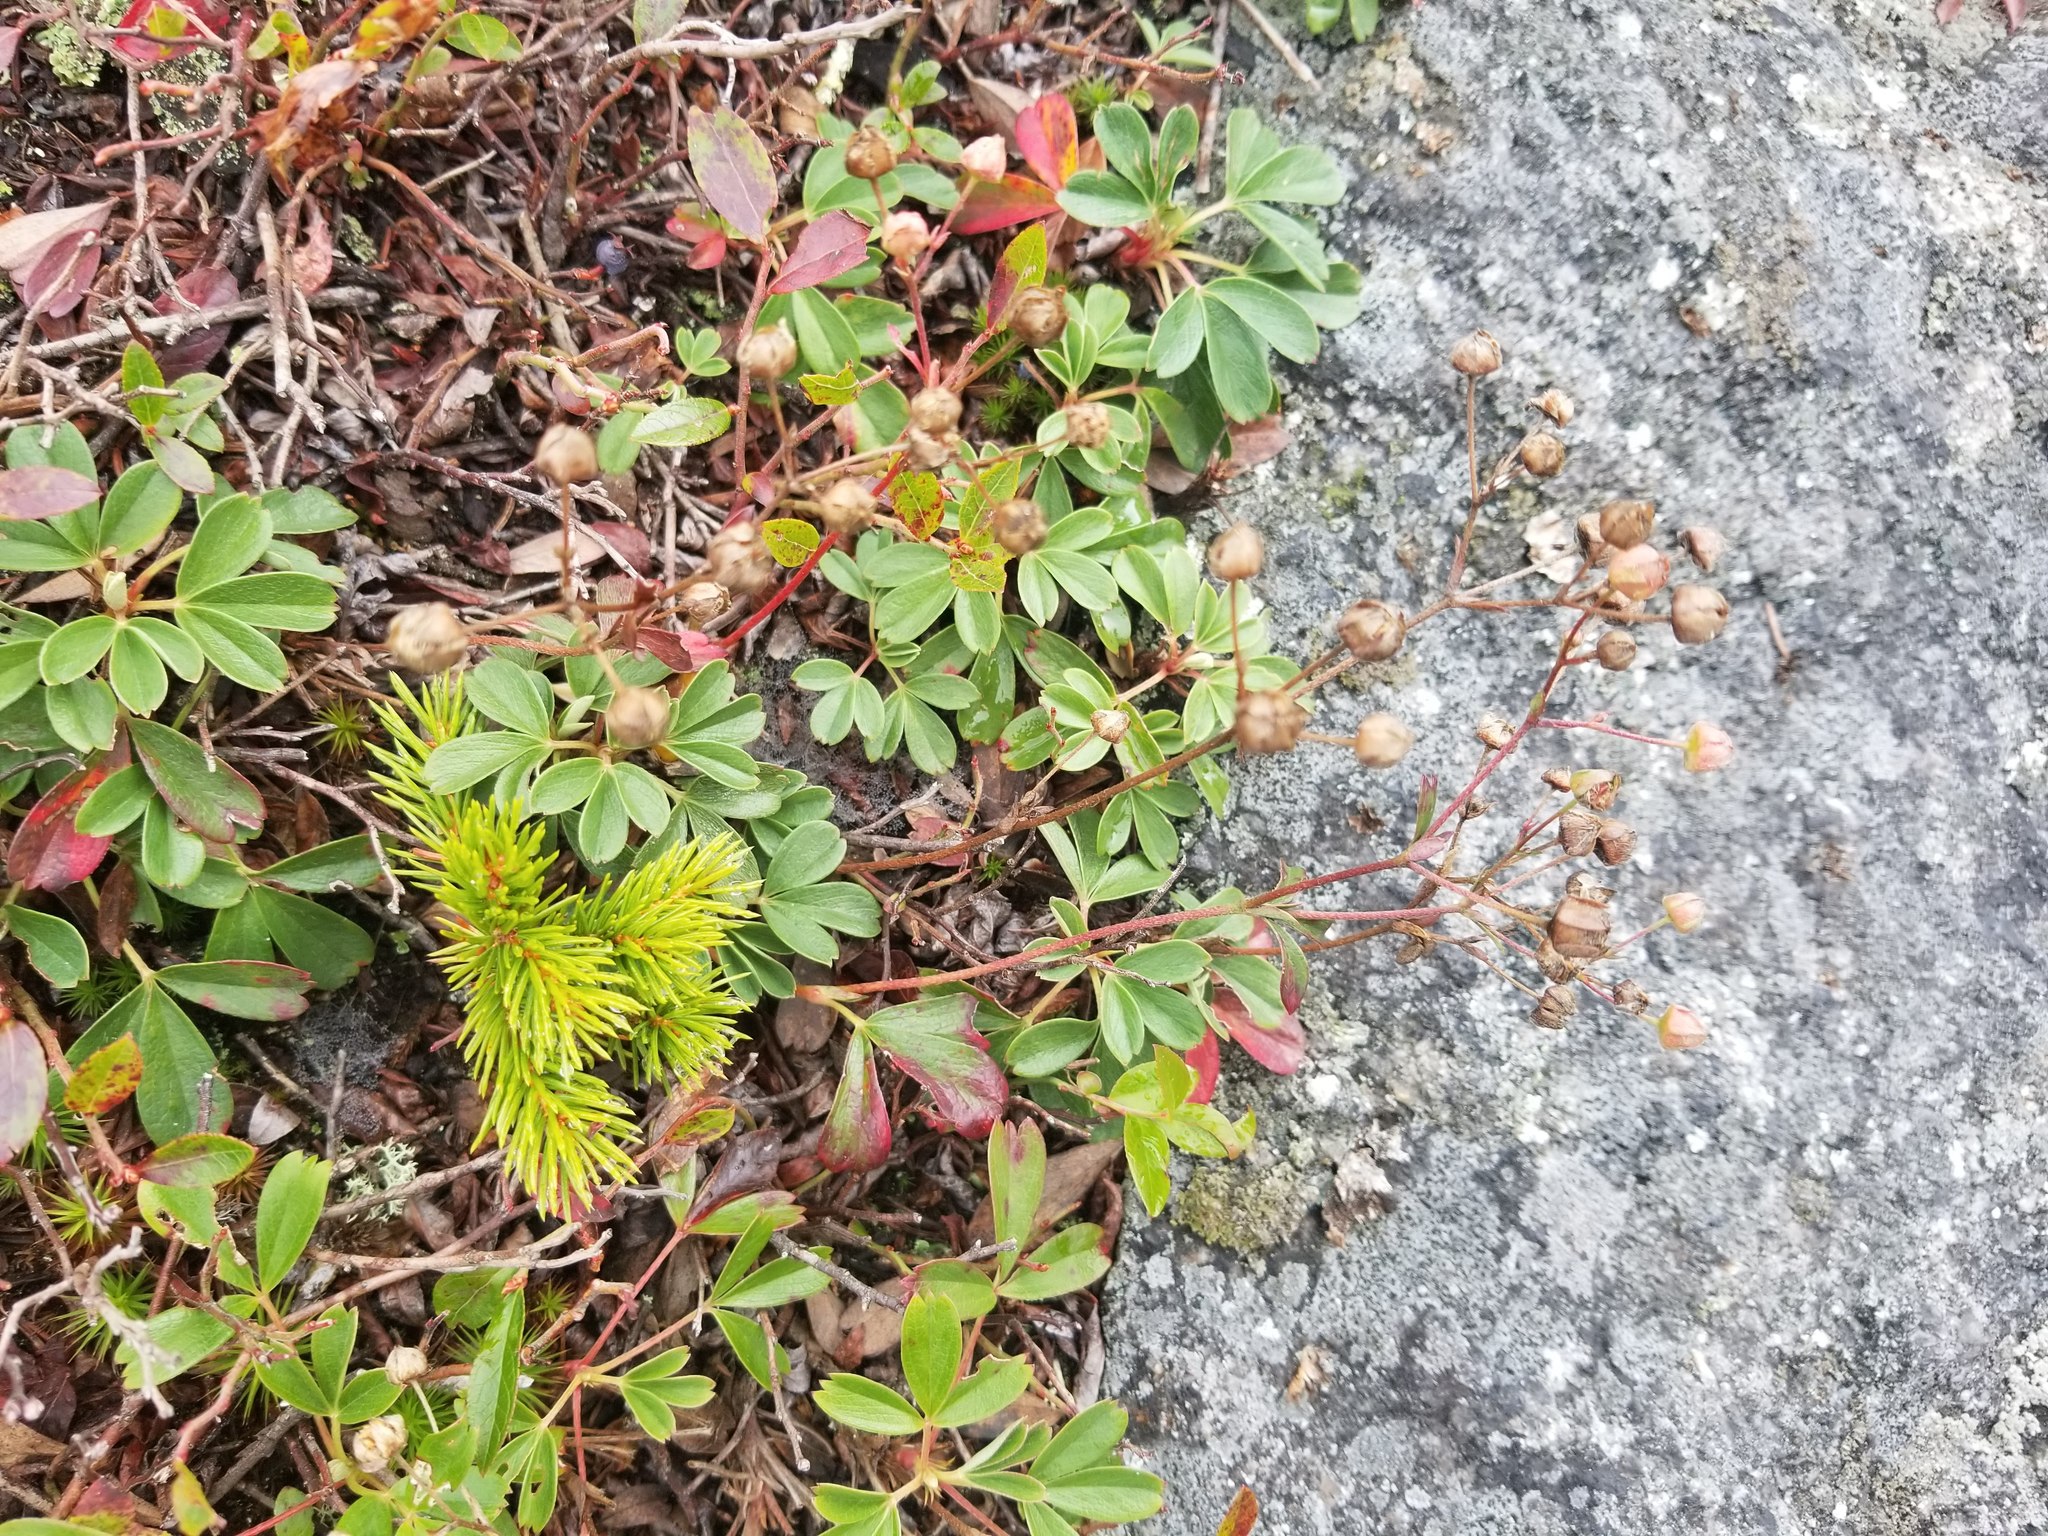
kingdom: Plantae
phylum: Tracheophyta
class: Magnoliopsida
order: Rosales
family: Rosaceae
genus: Sibbaldia
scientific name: Sibbaldia tridentata
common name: Three-toothed cinquefoil
